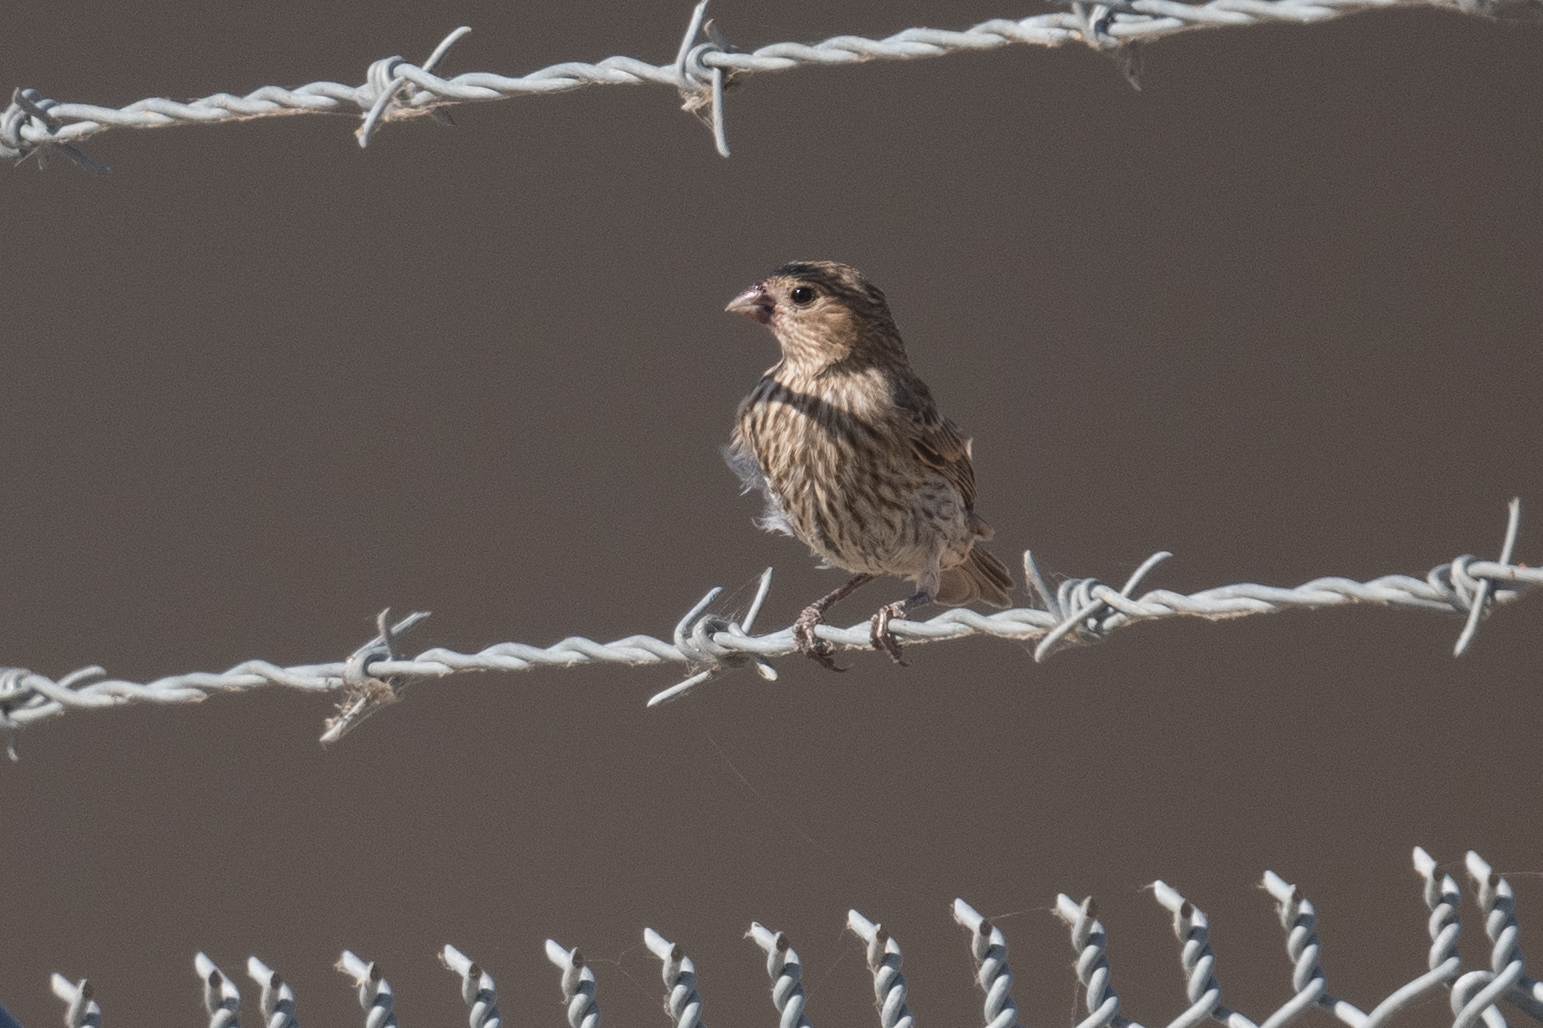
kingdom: Animalia
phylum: Chordata
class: Aves
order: Passeriformes
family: Fringillidae
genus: Haemorhous
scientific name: Haemorhous mexicanus
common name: House finch
